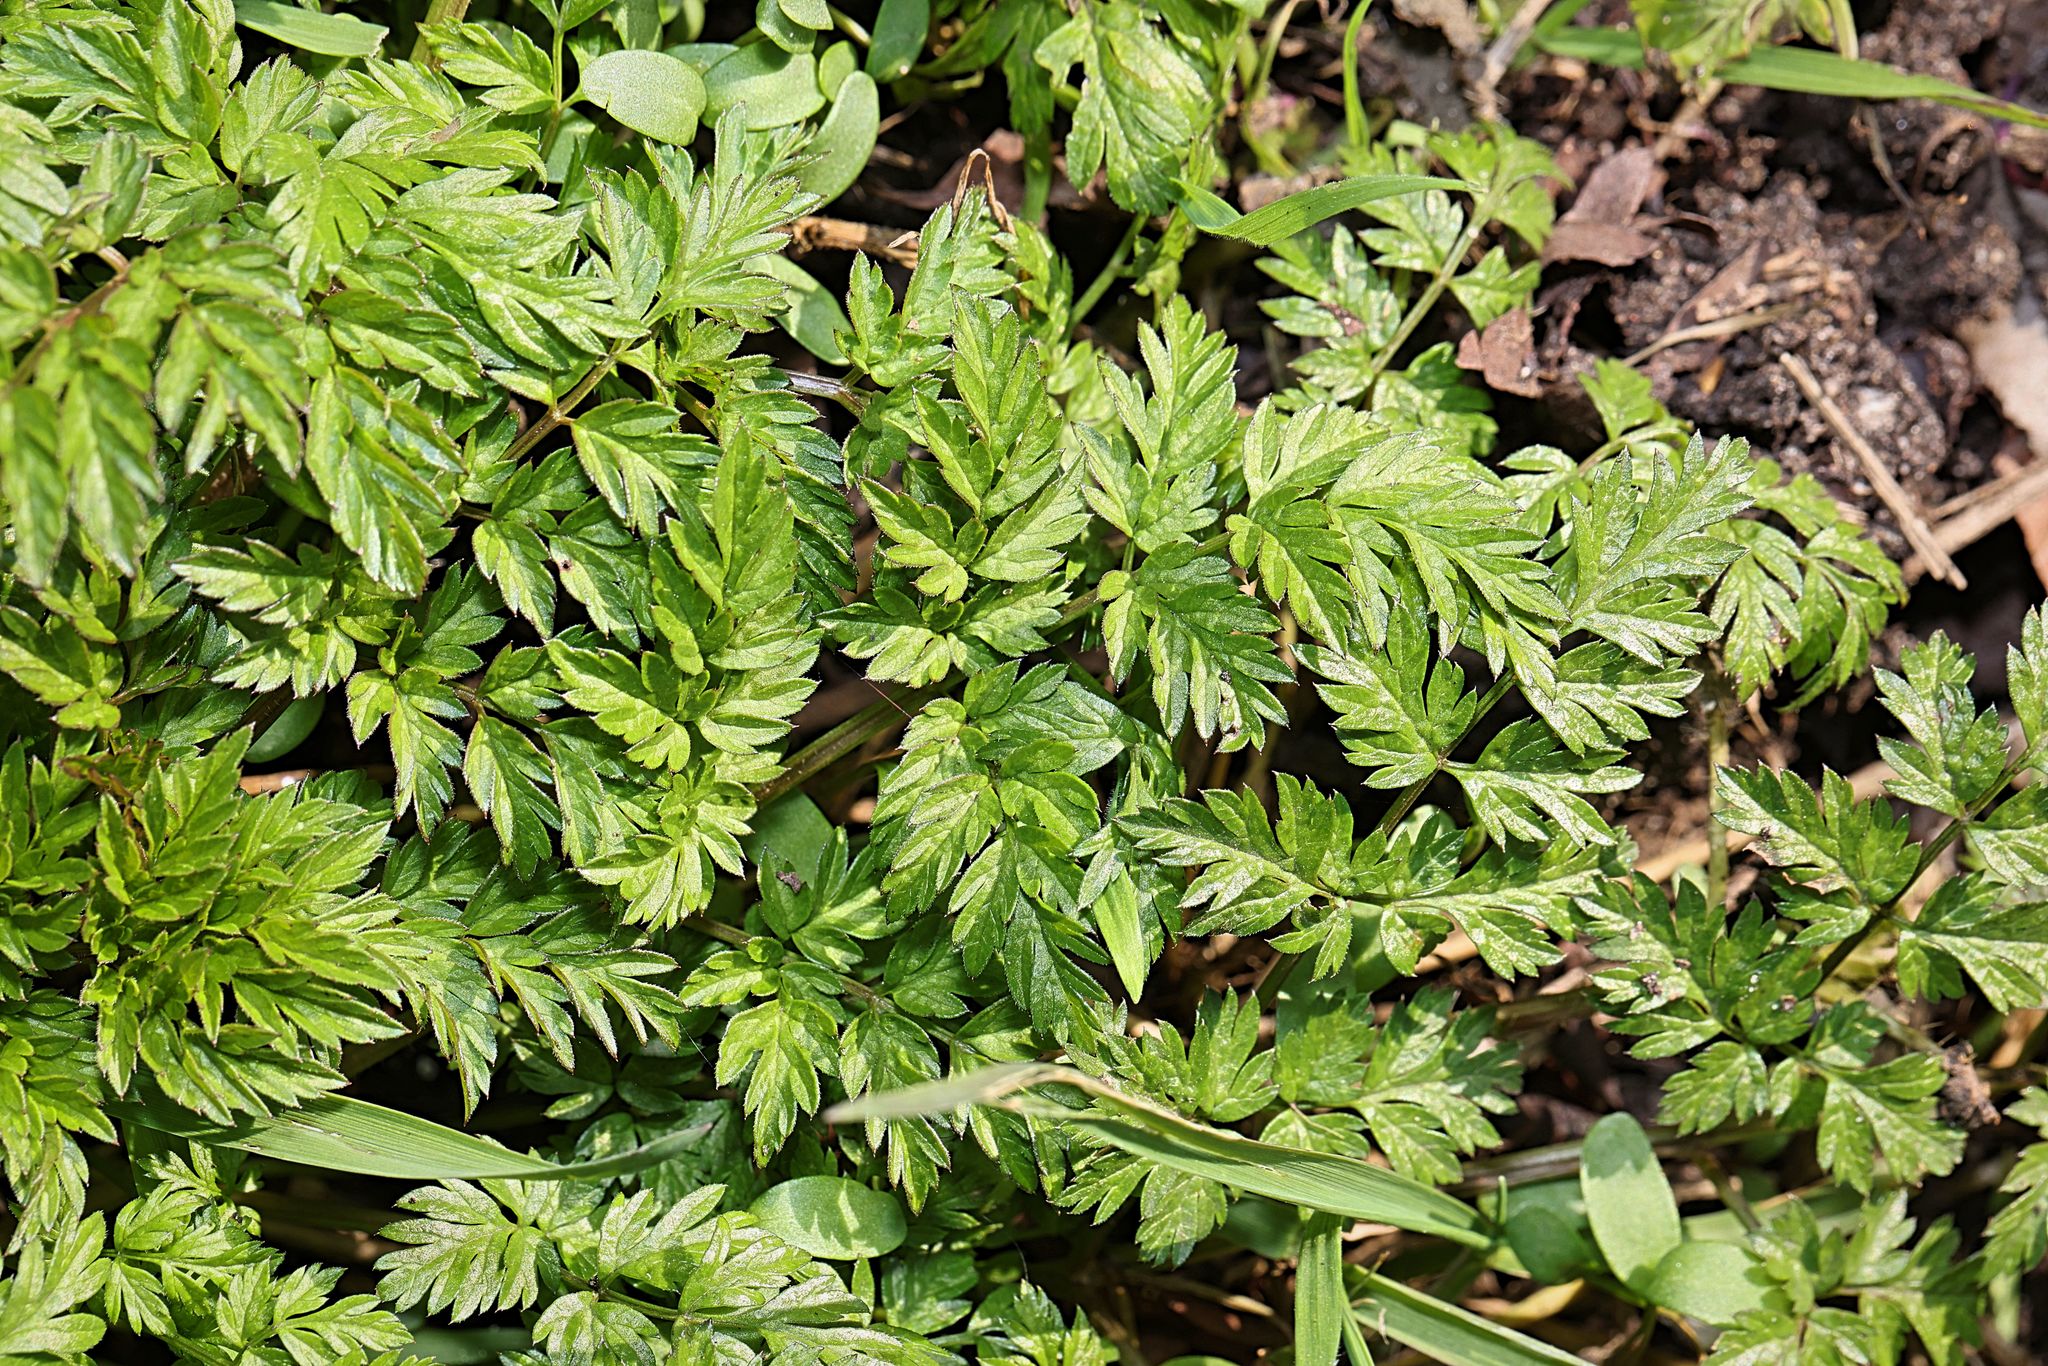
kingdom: Plantae
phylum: Tracheophyta
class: Magnoliopsida
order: Apiales
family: Apiaceae
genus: Anthriscus
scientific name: Anthriscus sylvestris
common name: Cow parsley
